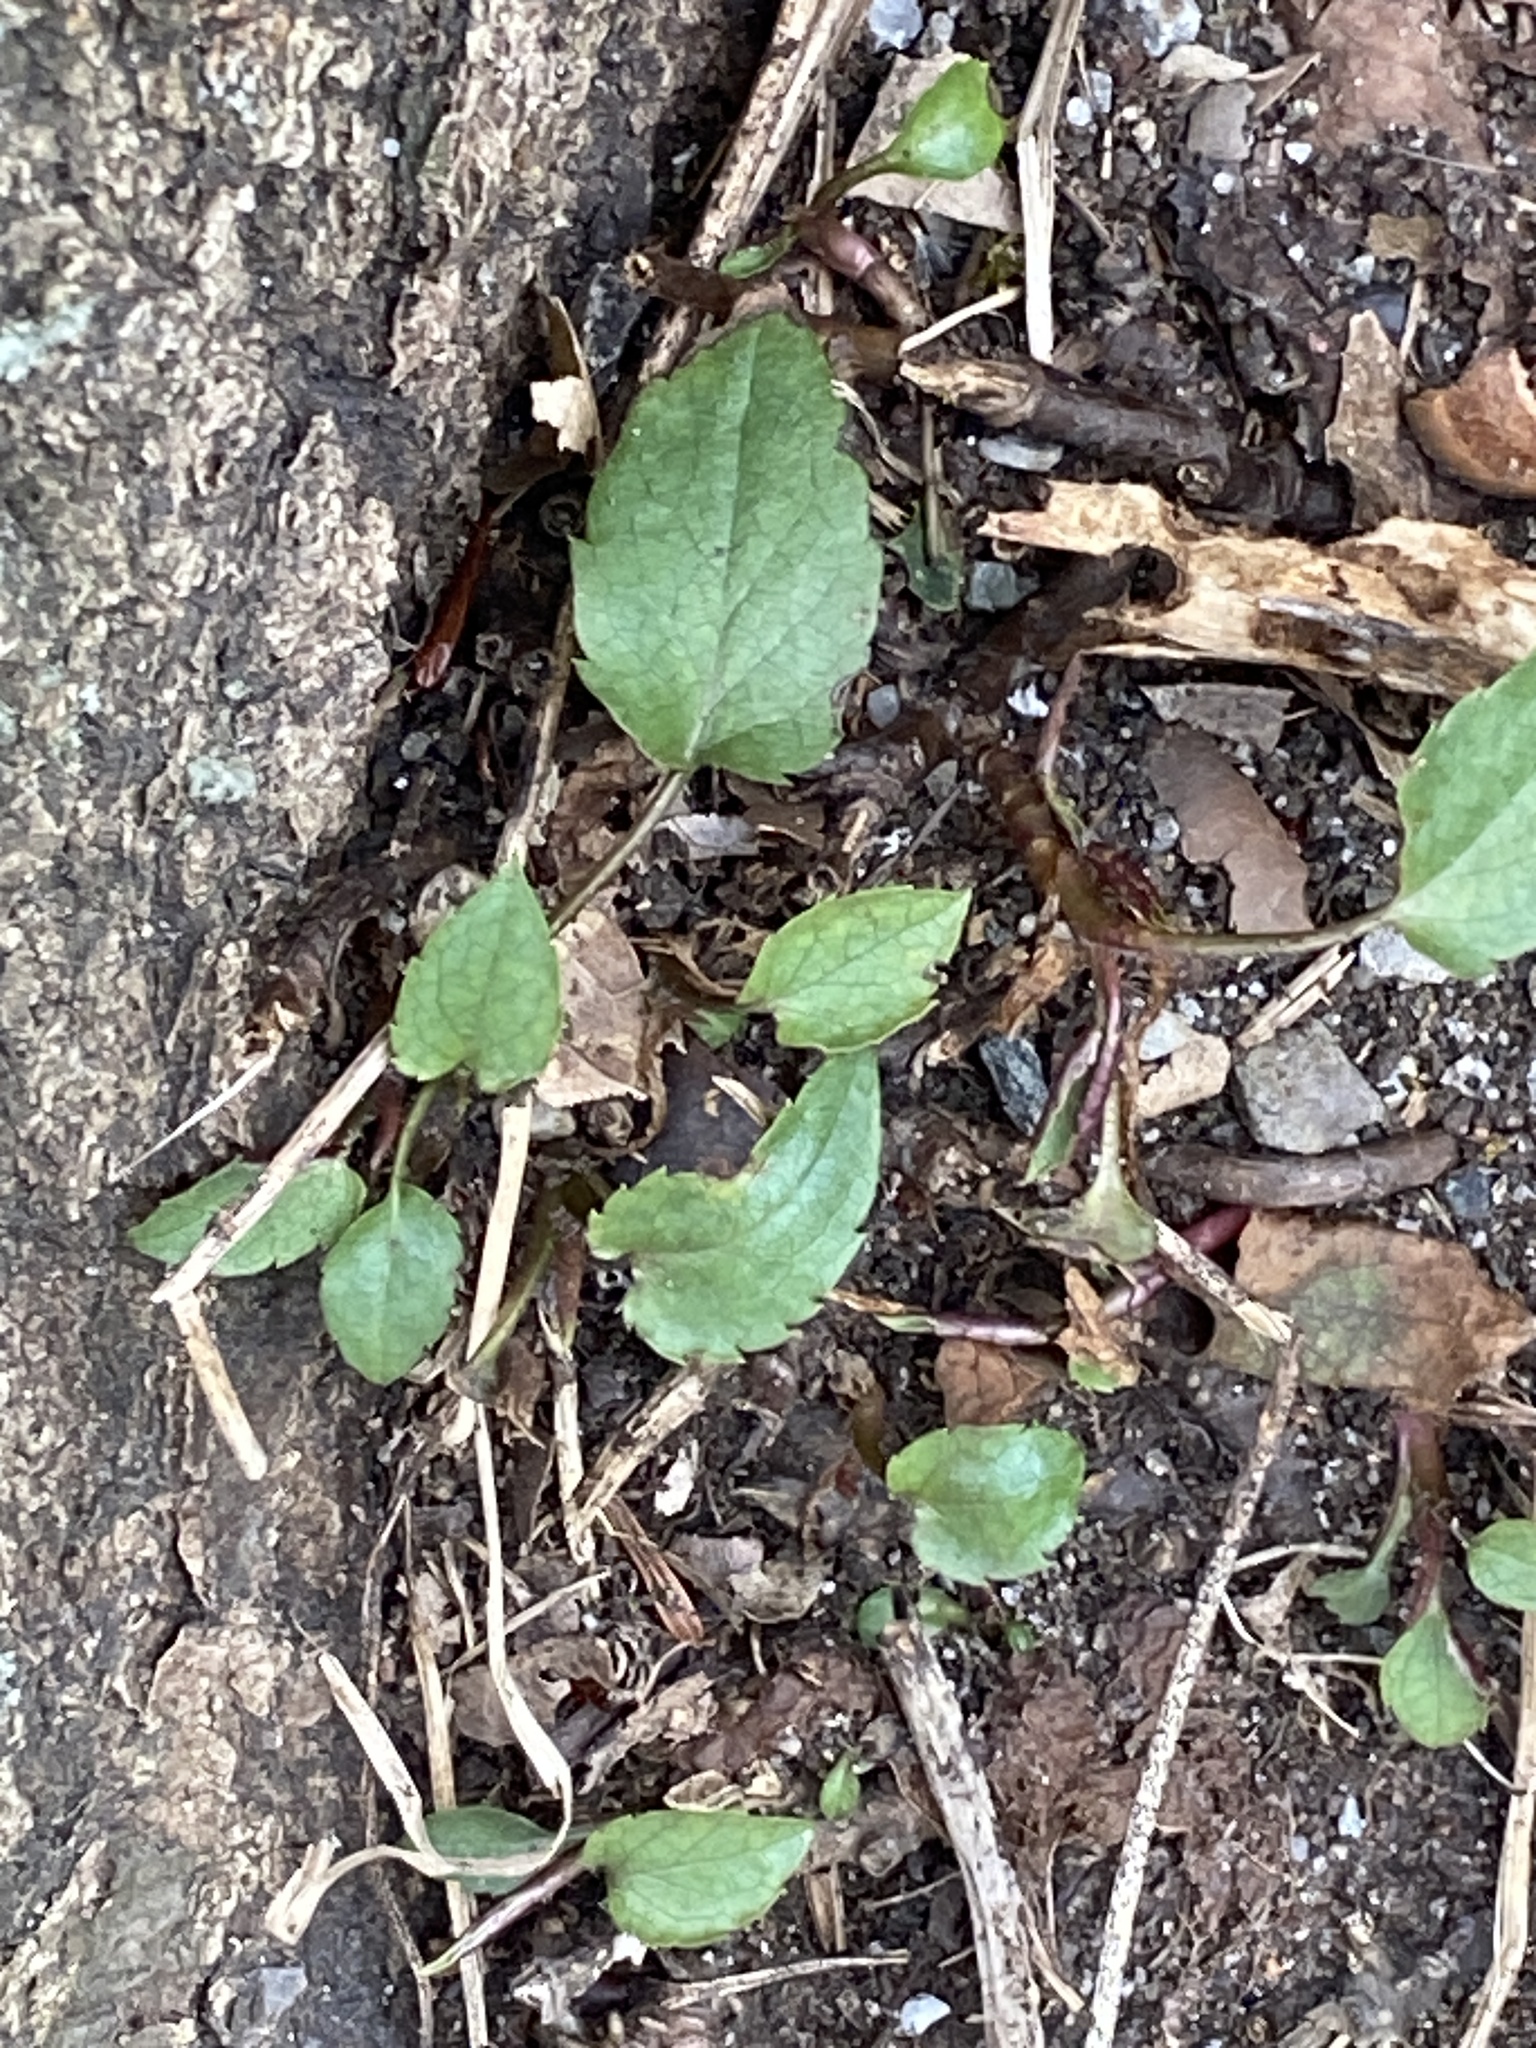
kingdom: Plantae
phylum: Tracheophyta
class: Magnoliopsida
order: Asterales
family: Asteraceae
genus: Eurybia
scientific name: Eurybia divaricata
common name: White wood aster
